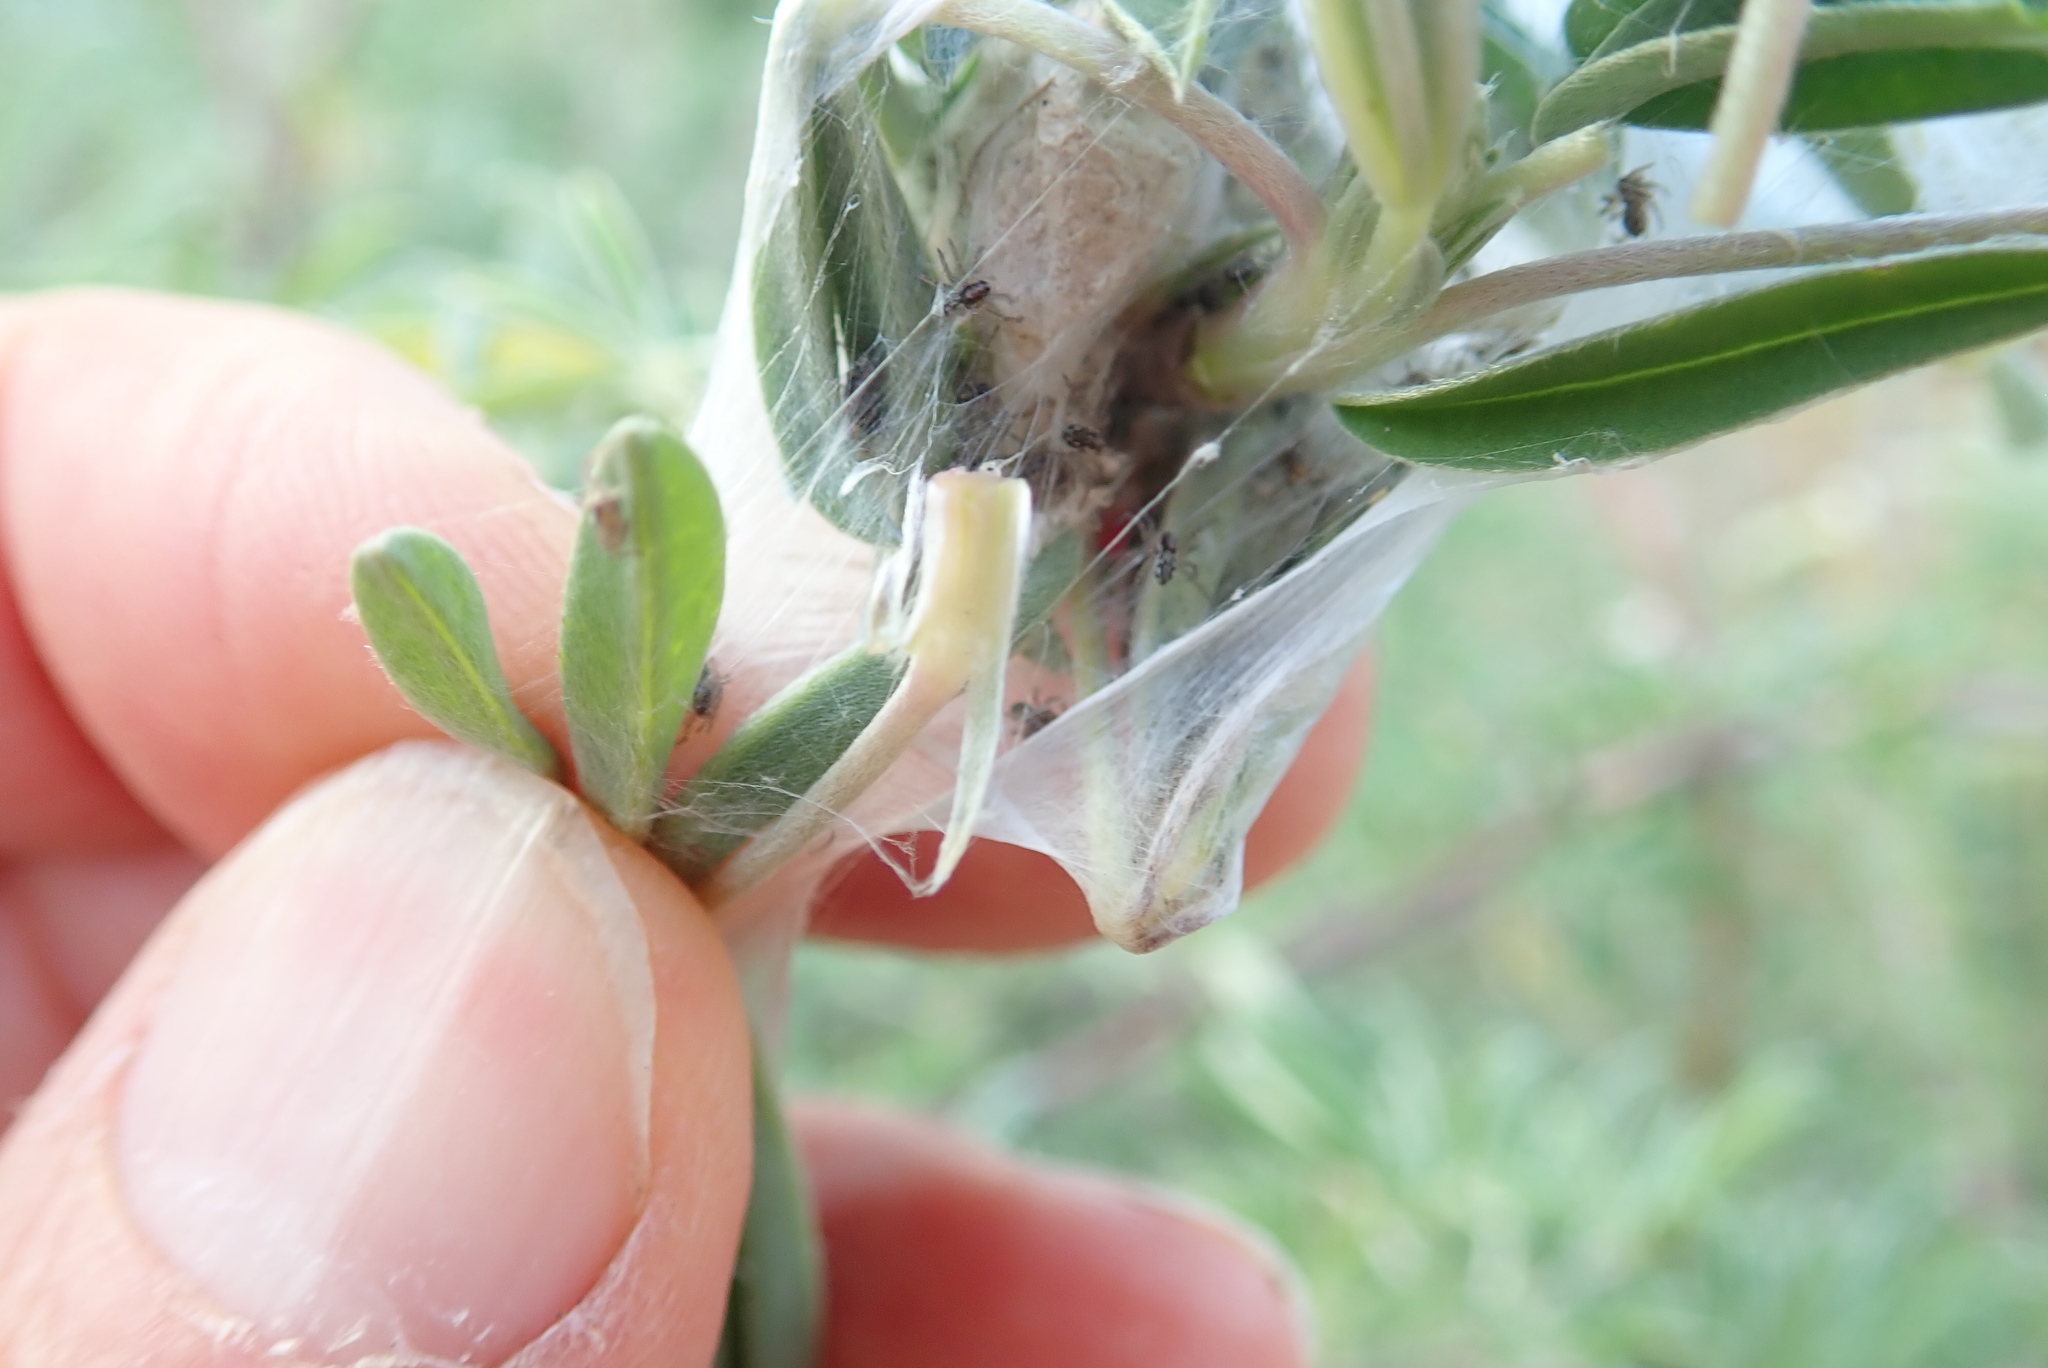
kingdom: Animalia
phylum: Arthropoda
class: Arachnida
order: Araneae
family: Pisauridae
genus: Dolomedes
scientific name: Dolomedes minor
